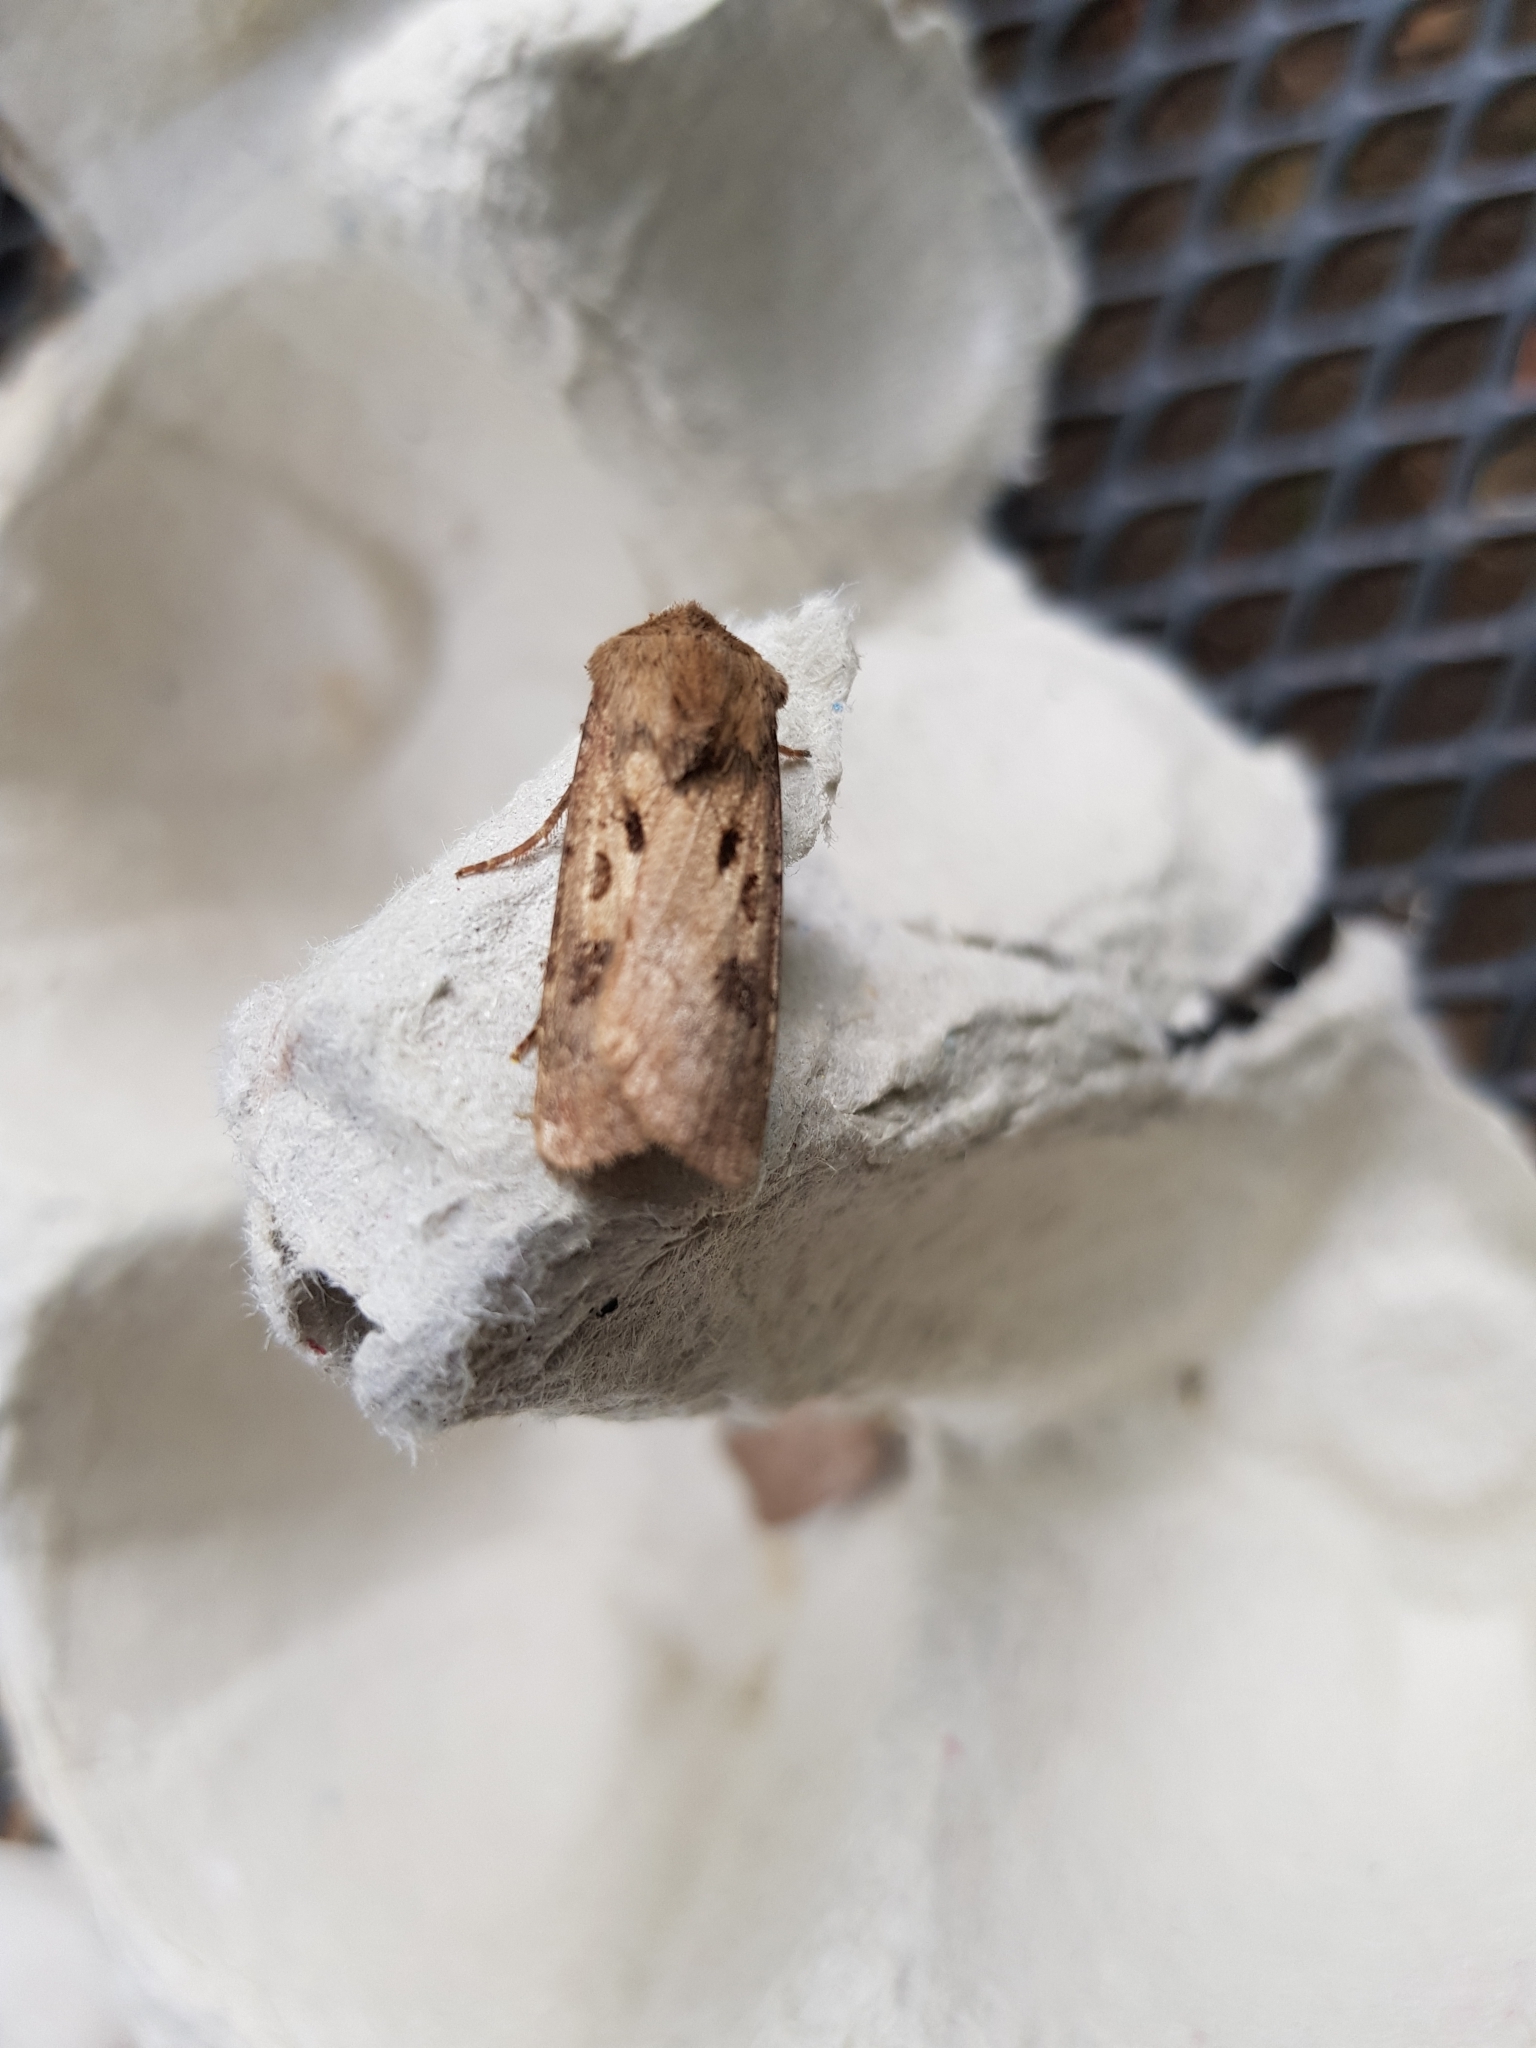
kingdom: Animalia
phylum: Arthropoda
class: Insecta
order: Lepidoptera
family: Noctuidae
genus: Agrotis
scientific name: Agrotis exclamationis
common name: Heart and dart
